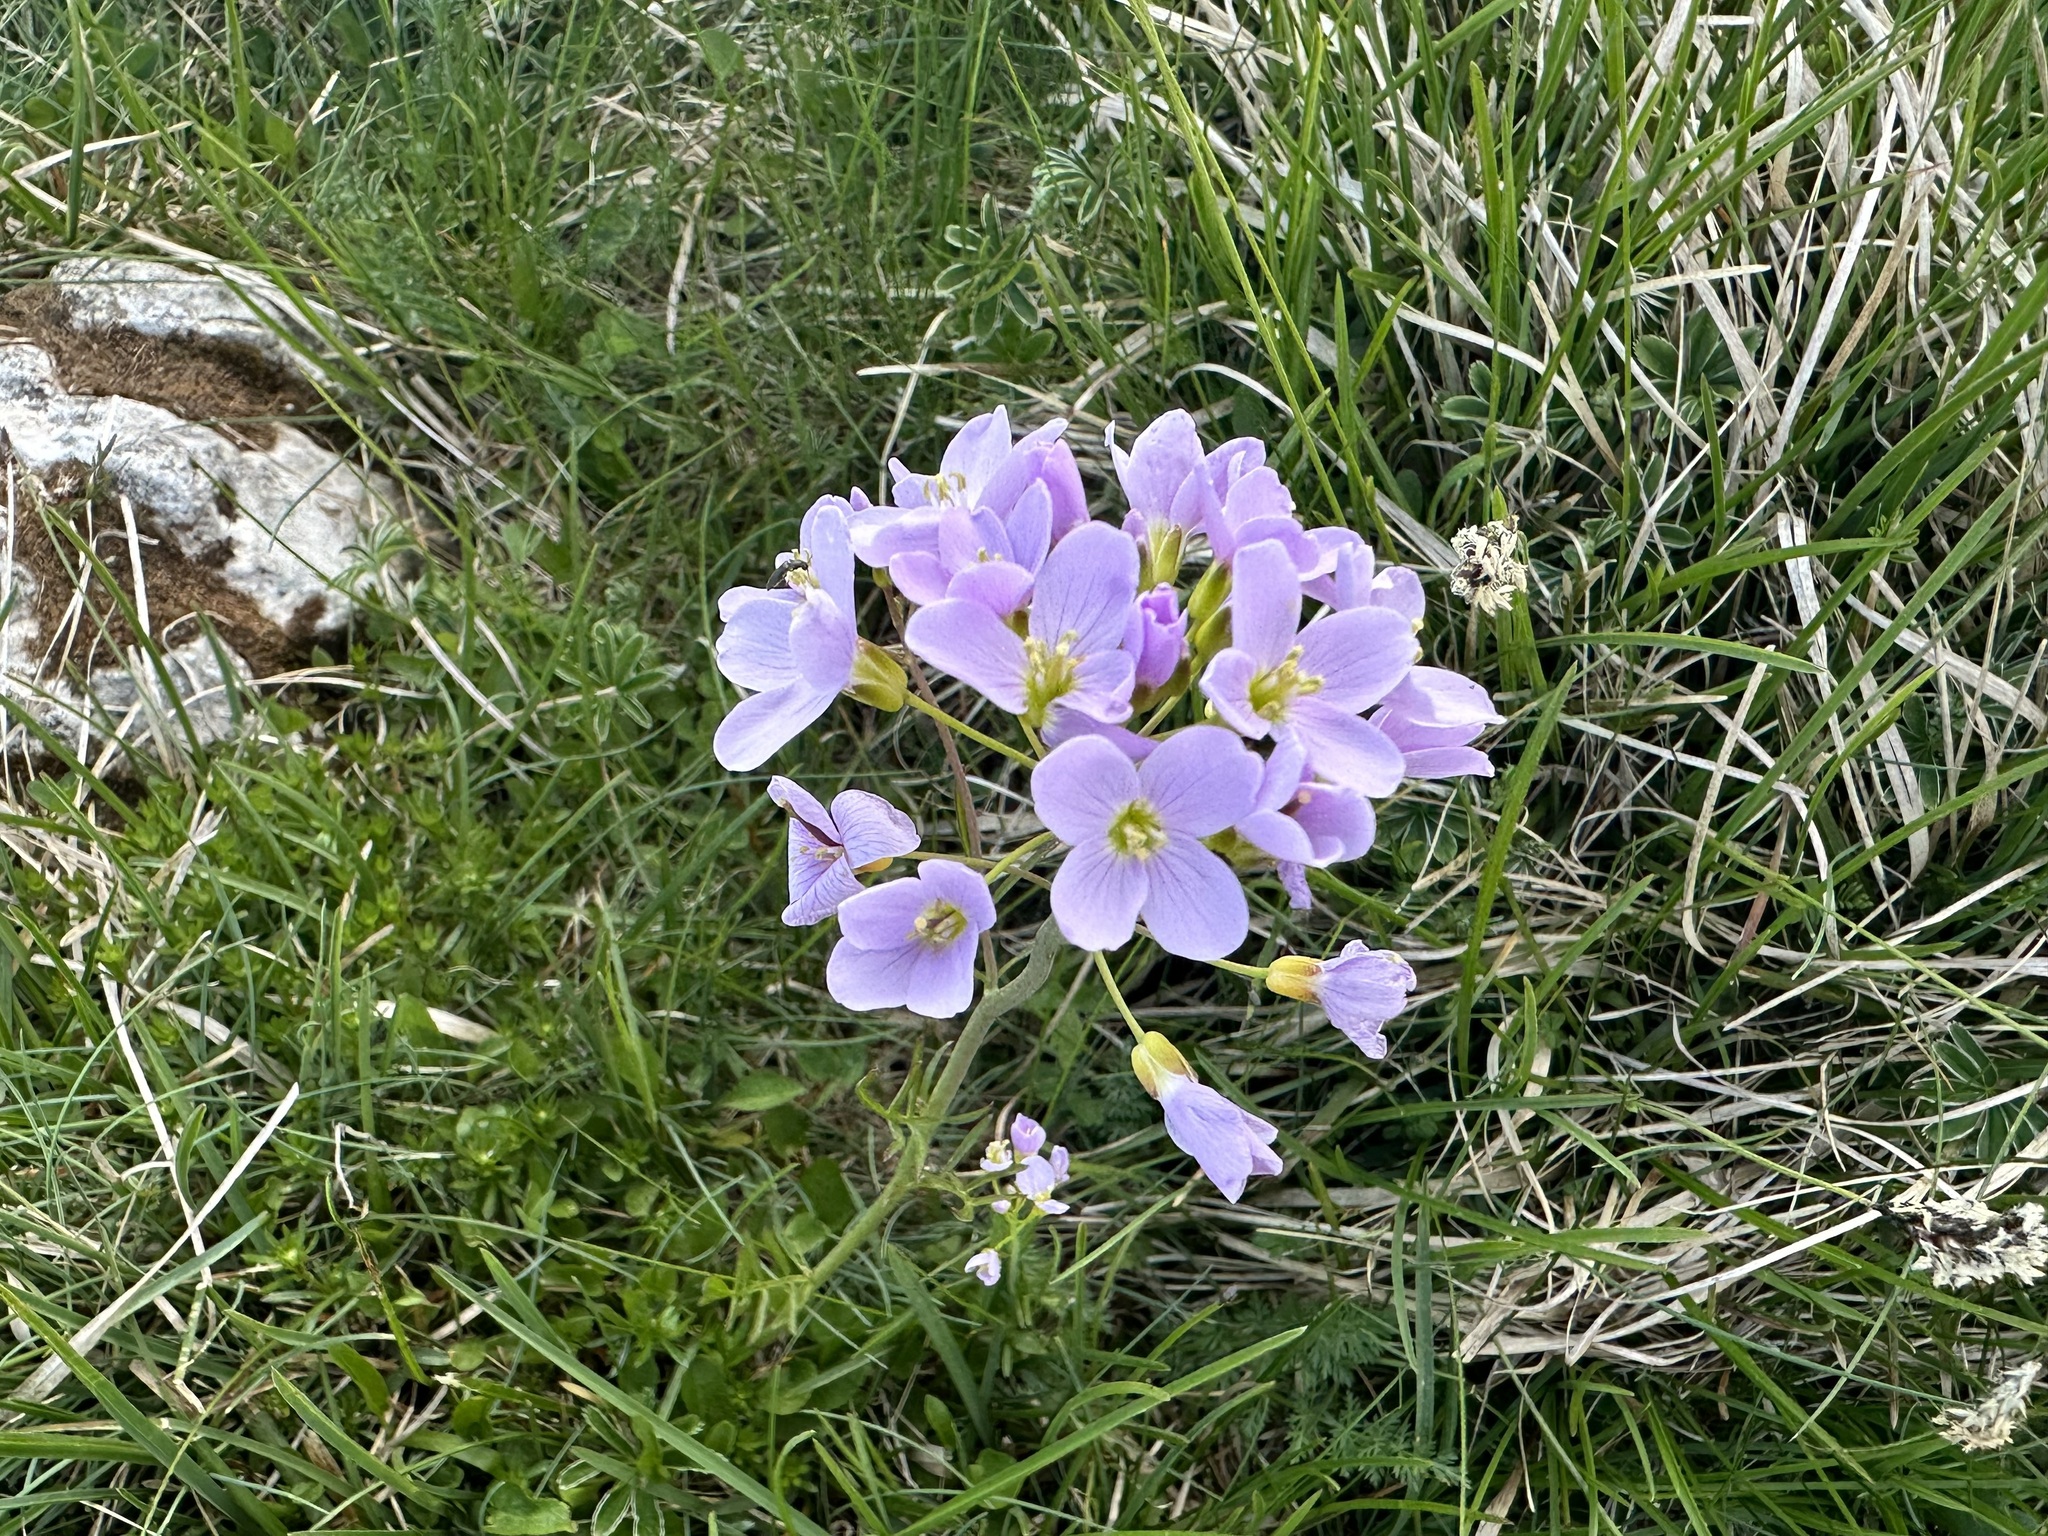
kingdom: Plantae
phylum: Tracheophyta
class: Magnoliopsida
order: Brassicales
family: Brassicaceae
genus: Cardamine
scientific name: Cardamine pratensis
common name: Cuckoo flower
